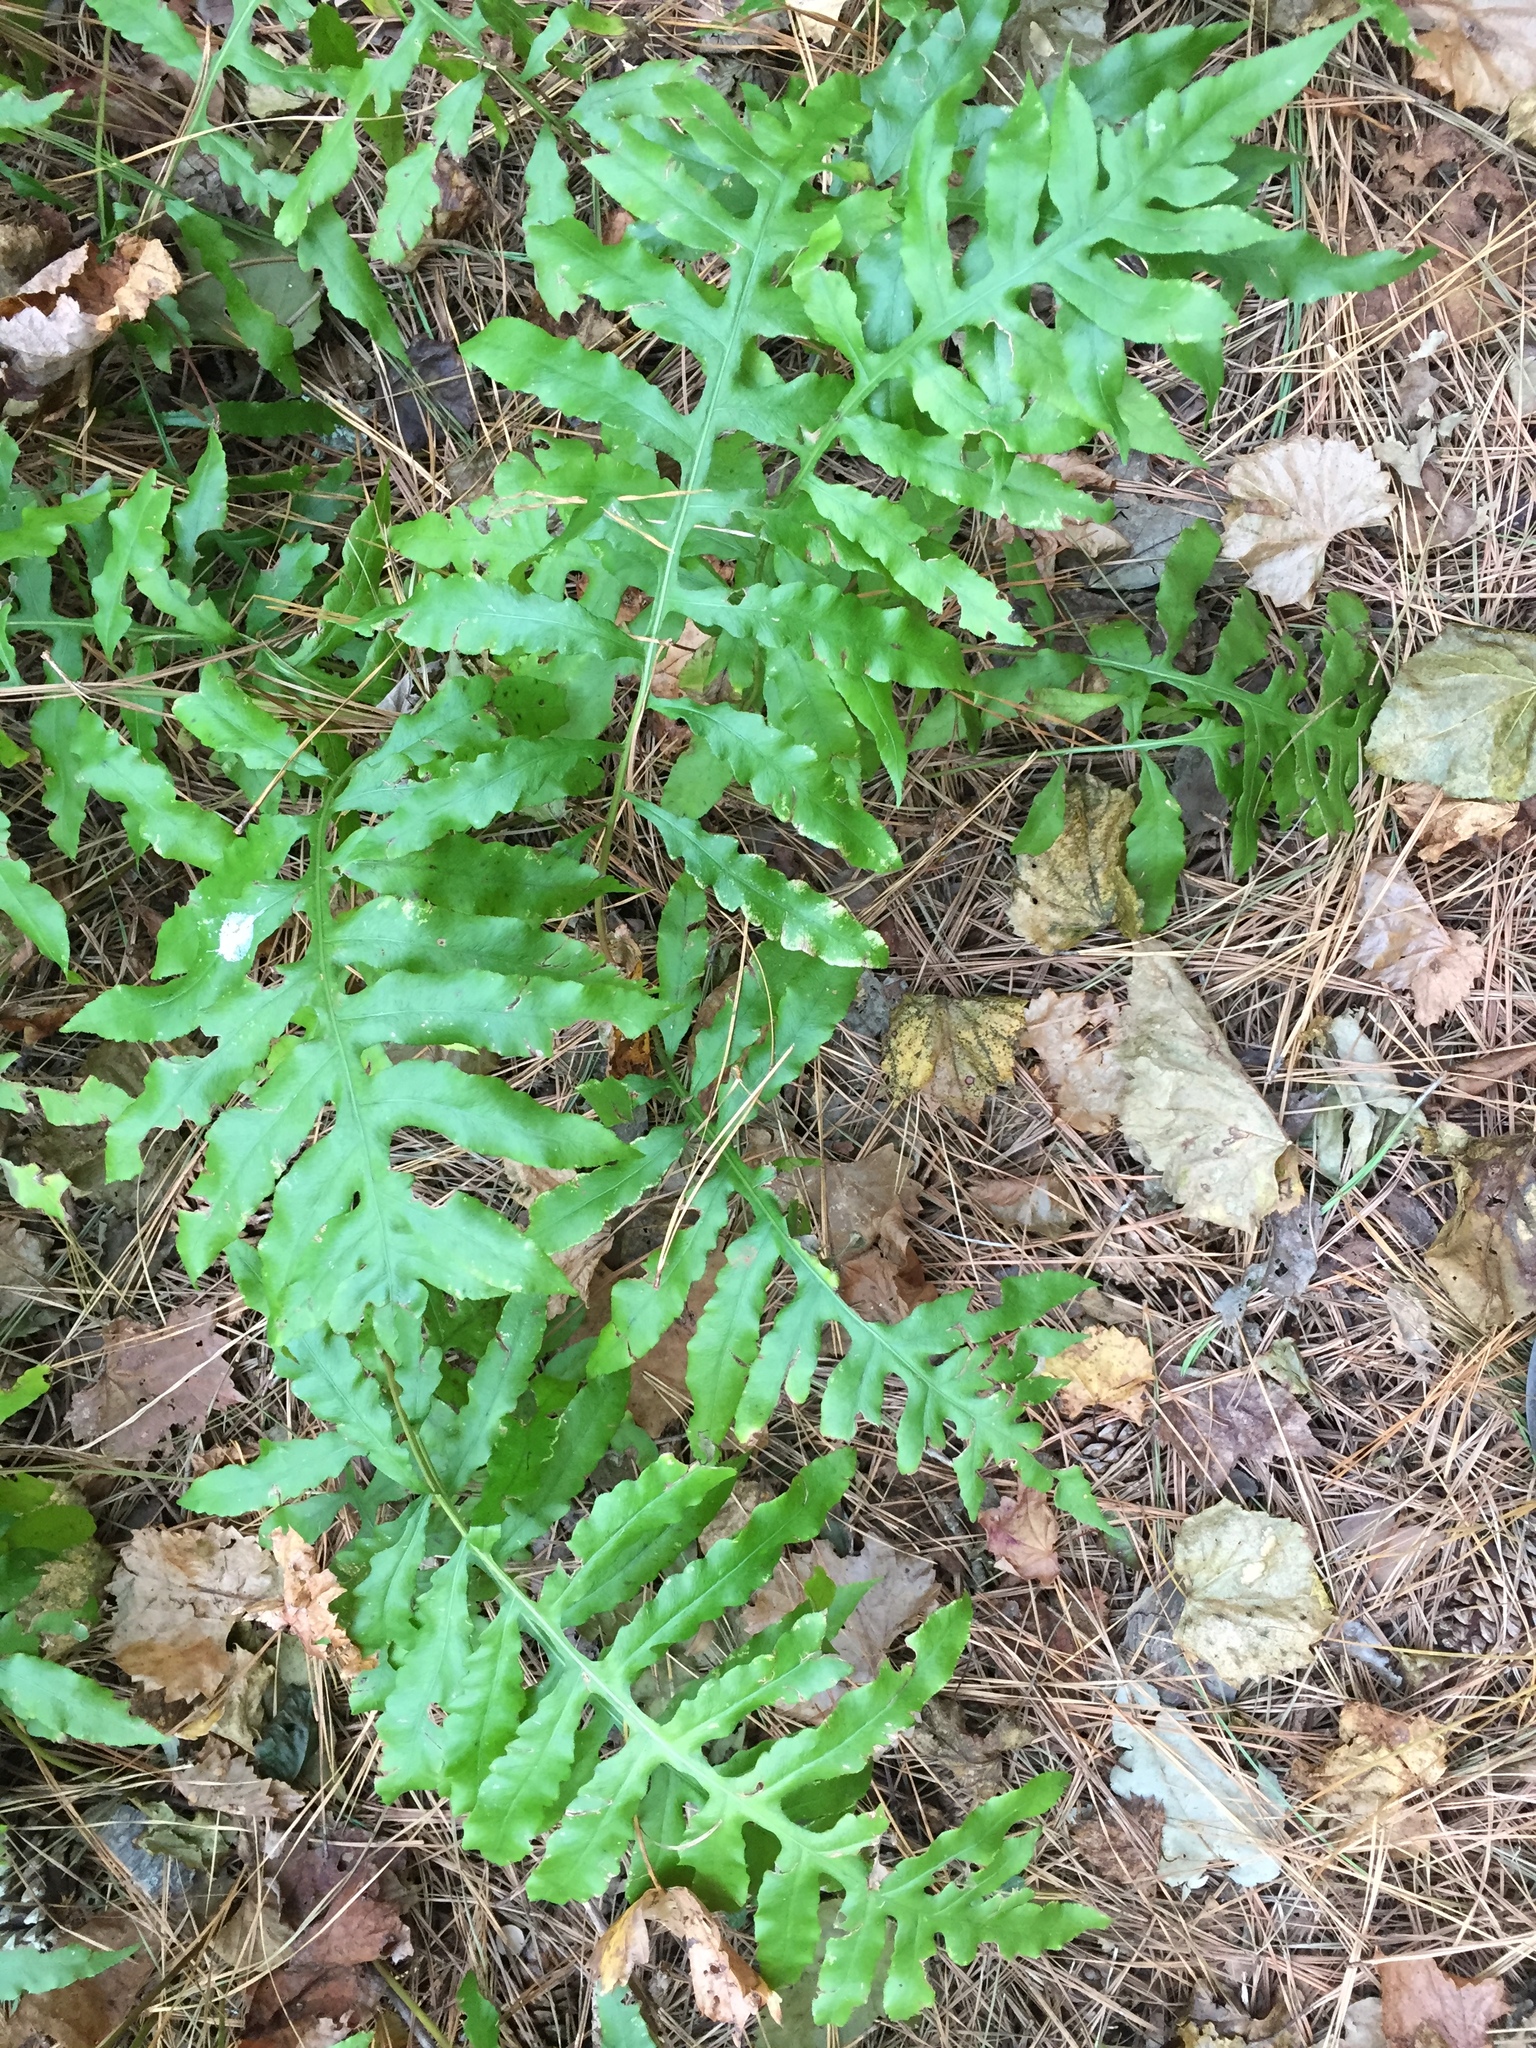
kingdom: Plantae
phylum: Tracheophyta
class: Polypodiopsida
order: Polypodiales
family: Blechnaceae
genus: Lorinseria
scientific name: Lorinseria areolata
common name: Dwarf chain fern
